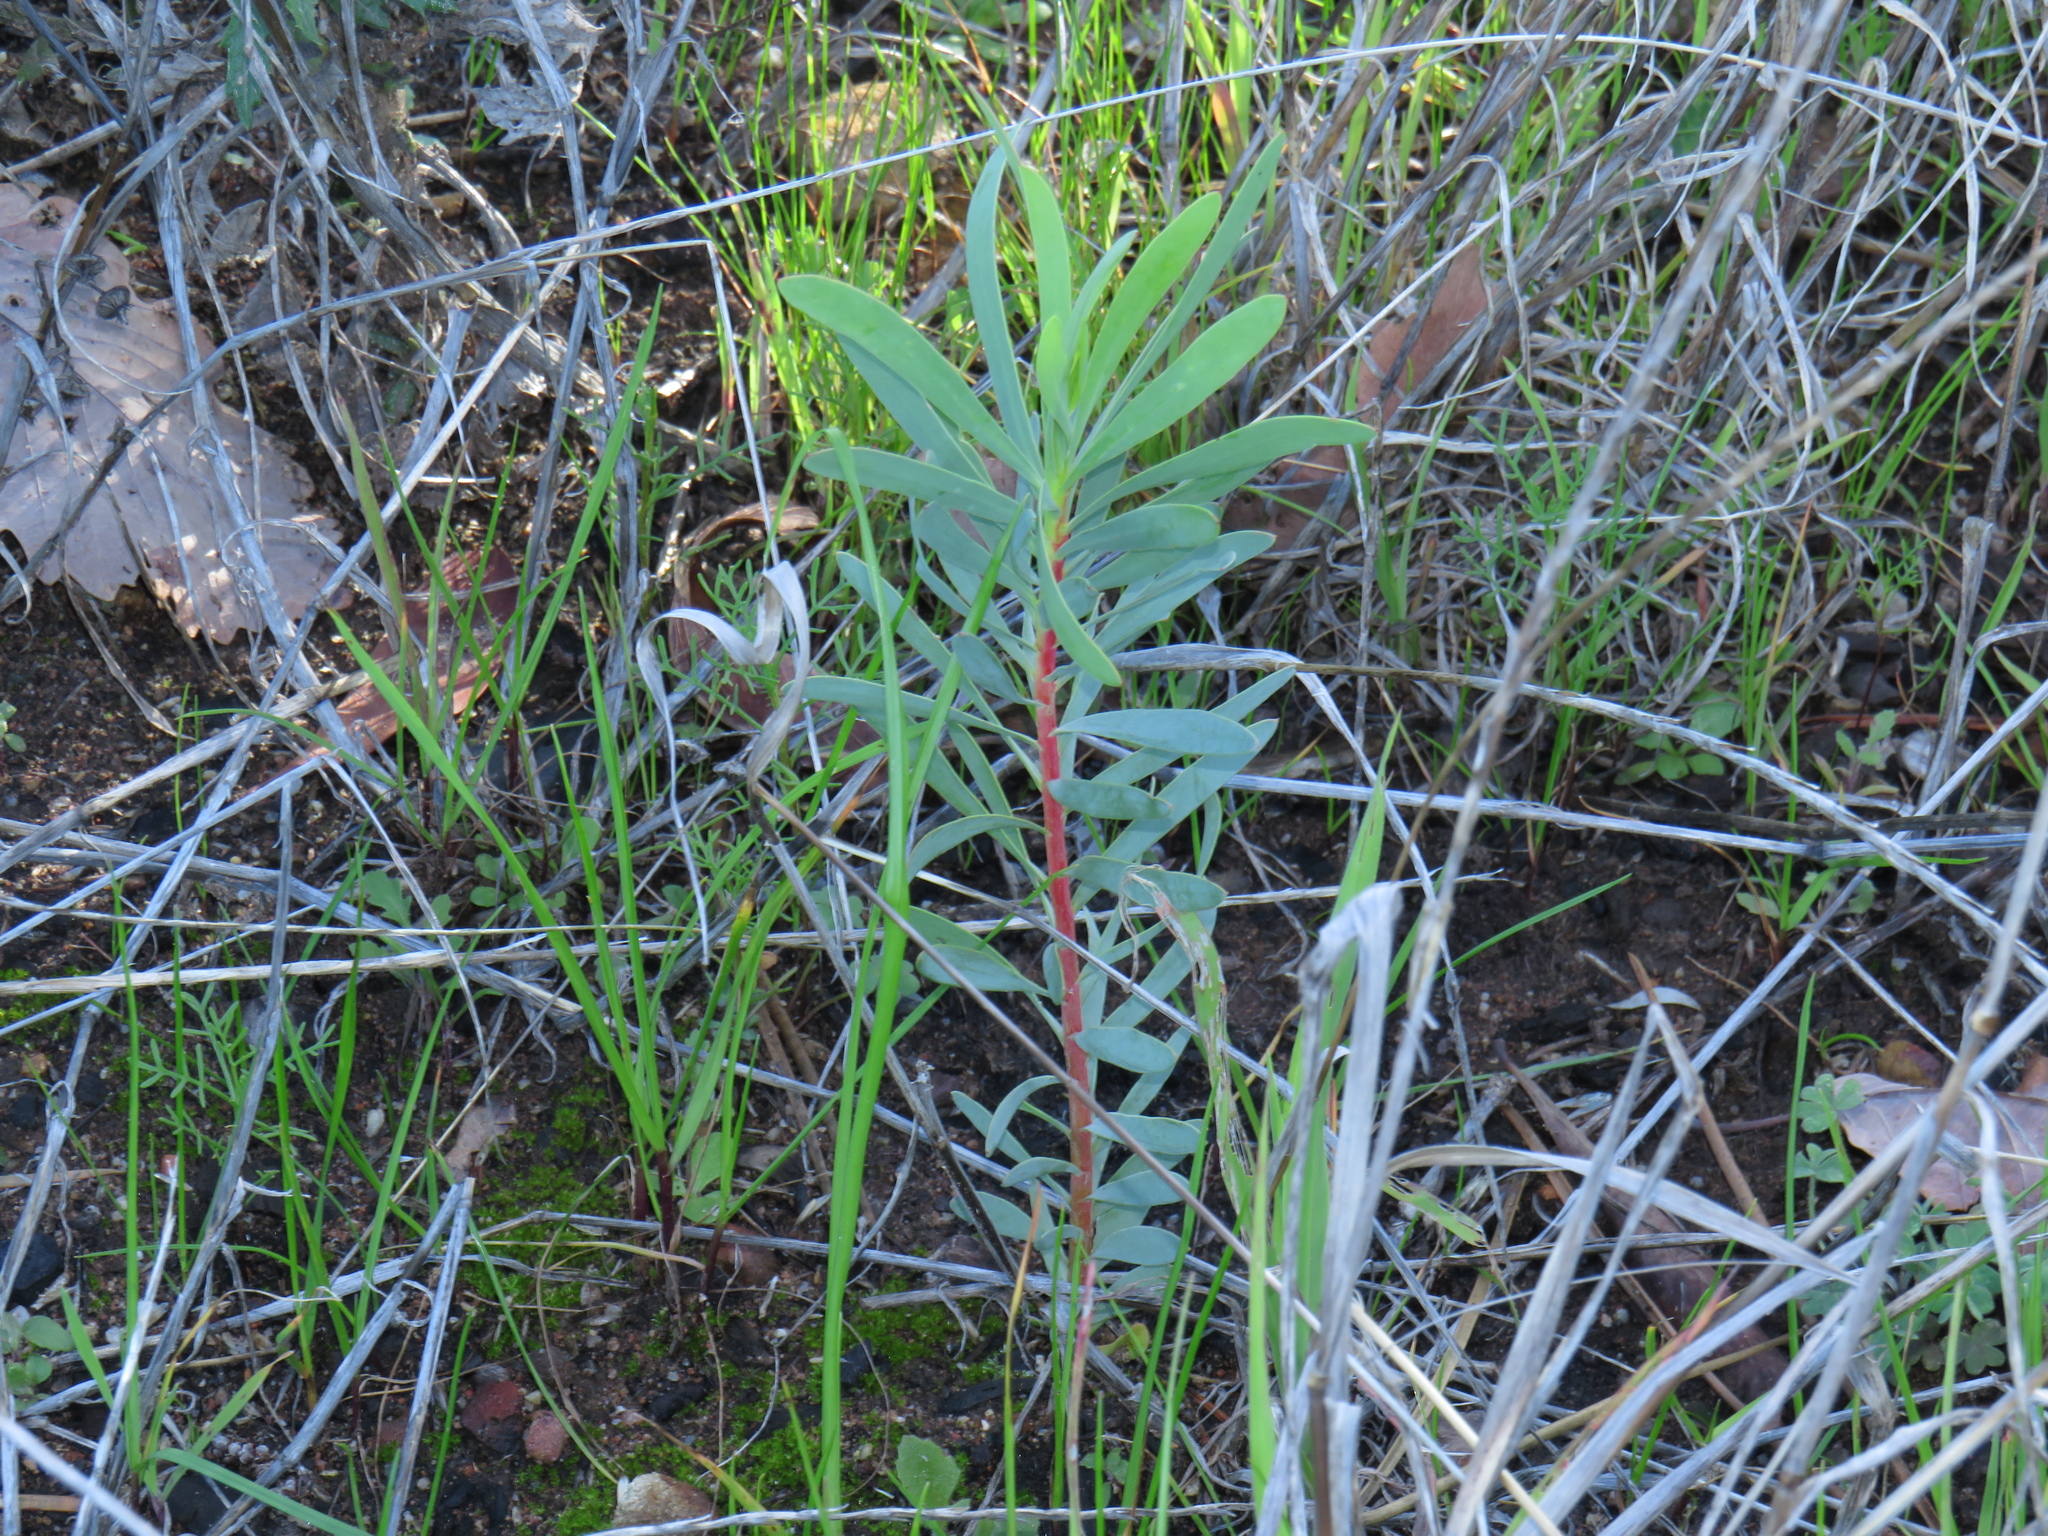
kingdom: Plantae
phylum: Tracheophyta
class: Magnoliopsida
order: Proteales
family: Proteaceae
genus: Protea
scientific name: Protea repens
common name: Sugarbush
